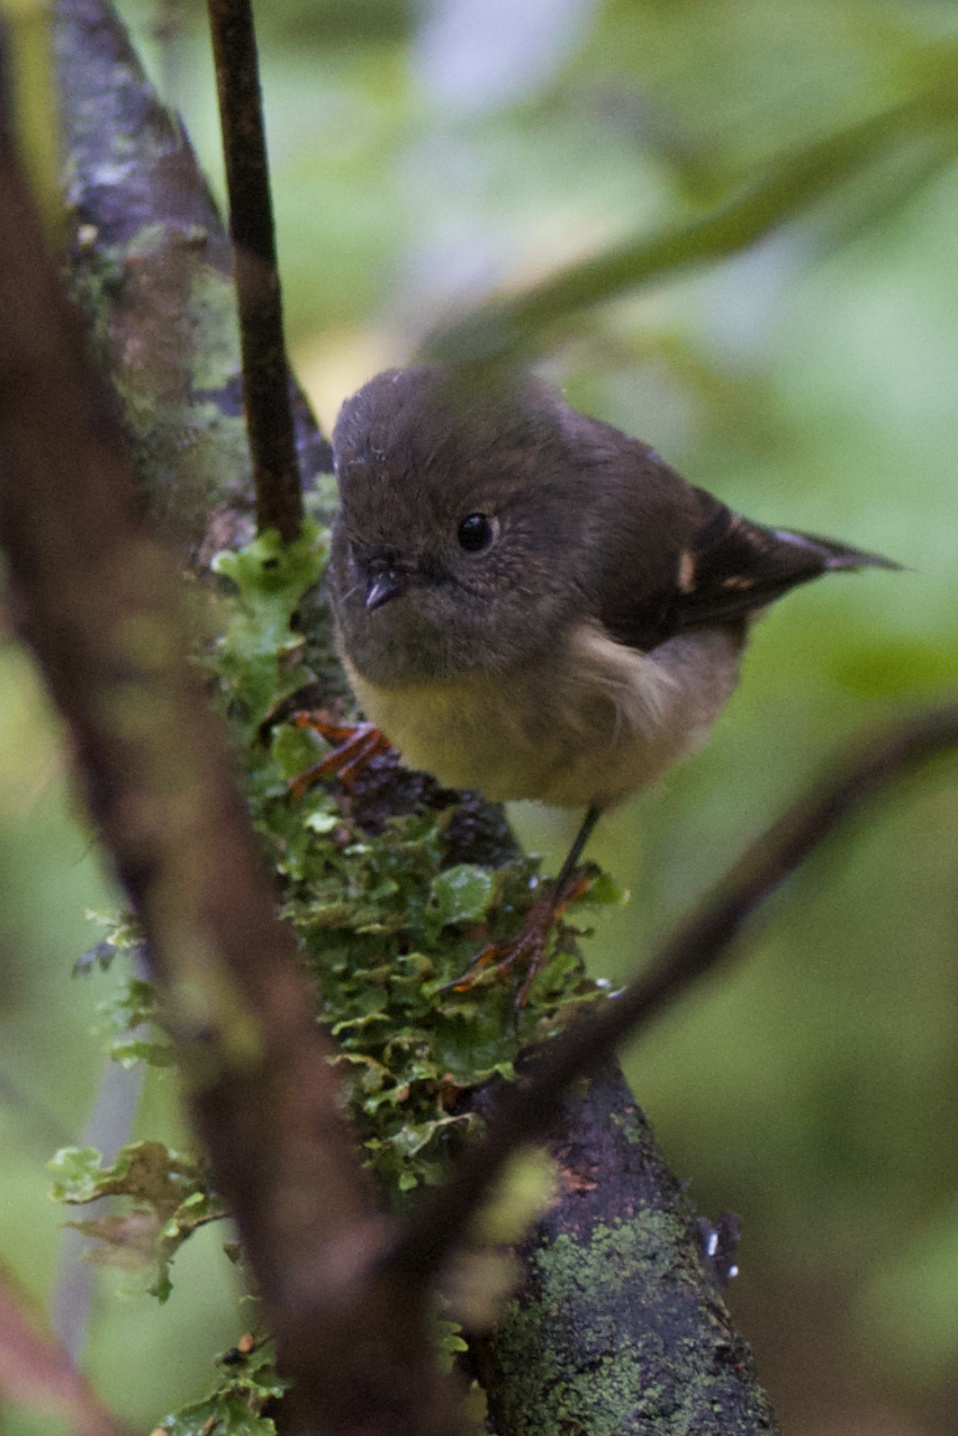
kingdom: Animalia
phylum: Chordata
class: Aves
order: Passeriformes
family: Petroicidae
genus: Petroica
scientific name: Petroica macrocephala
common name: Tomtit
